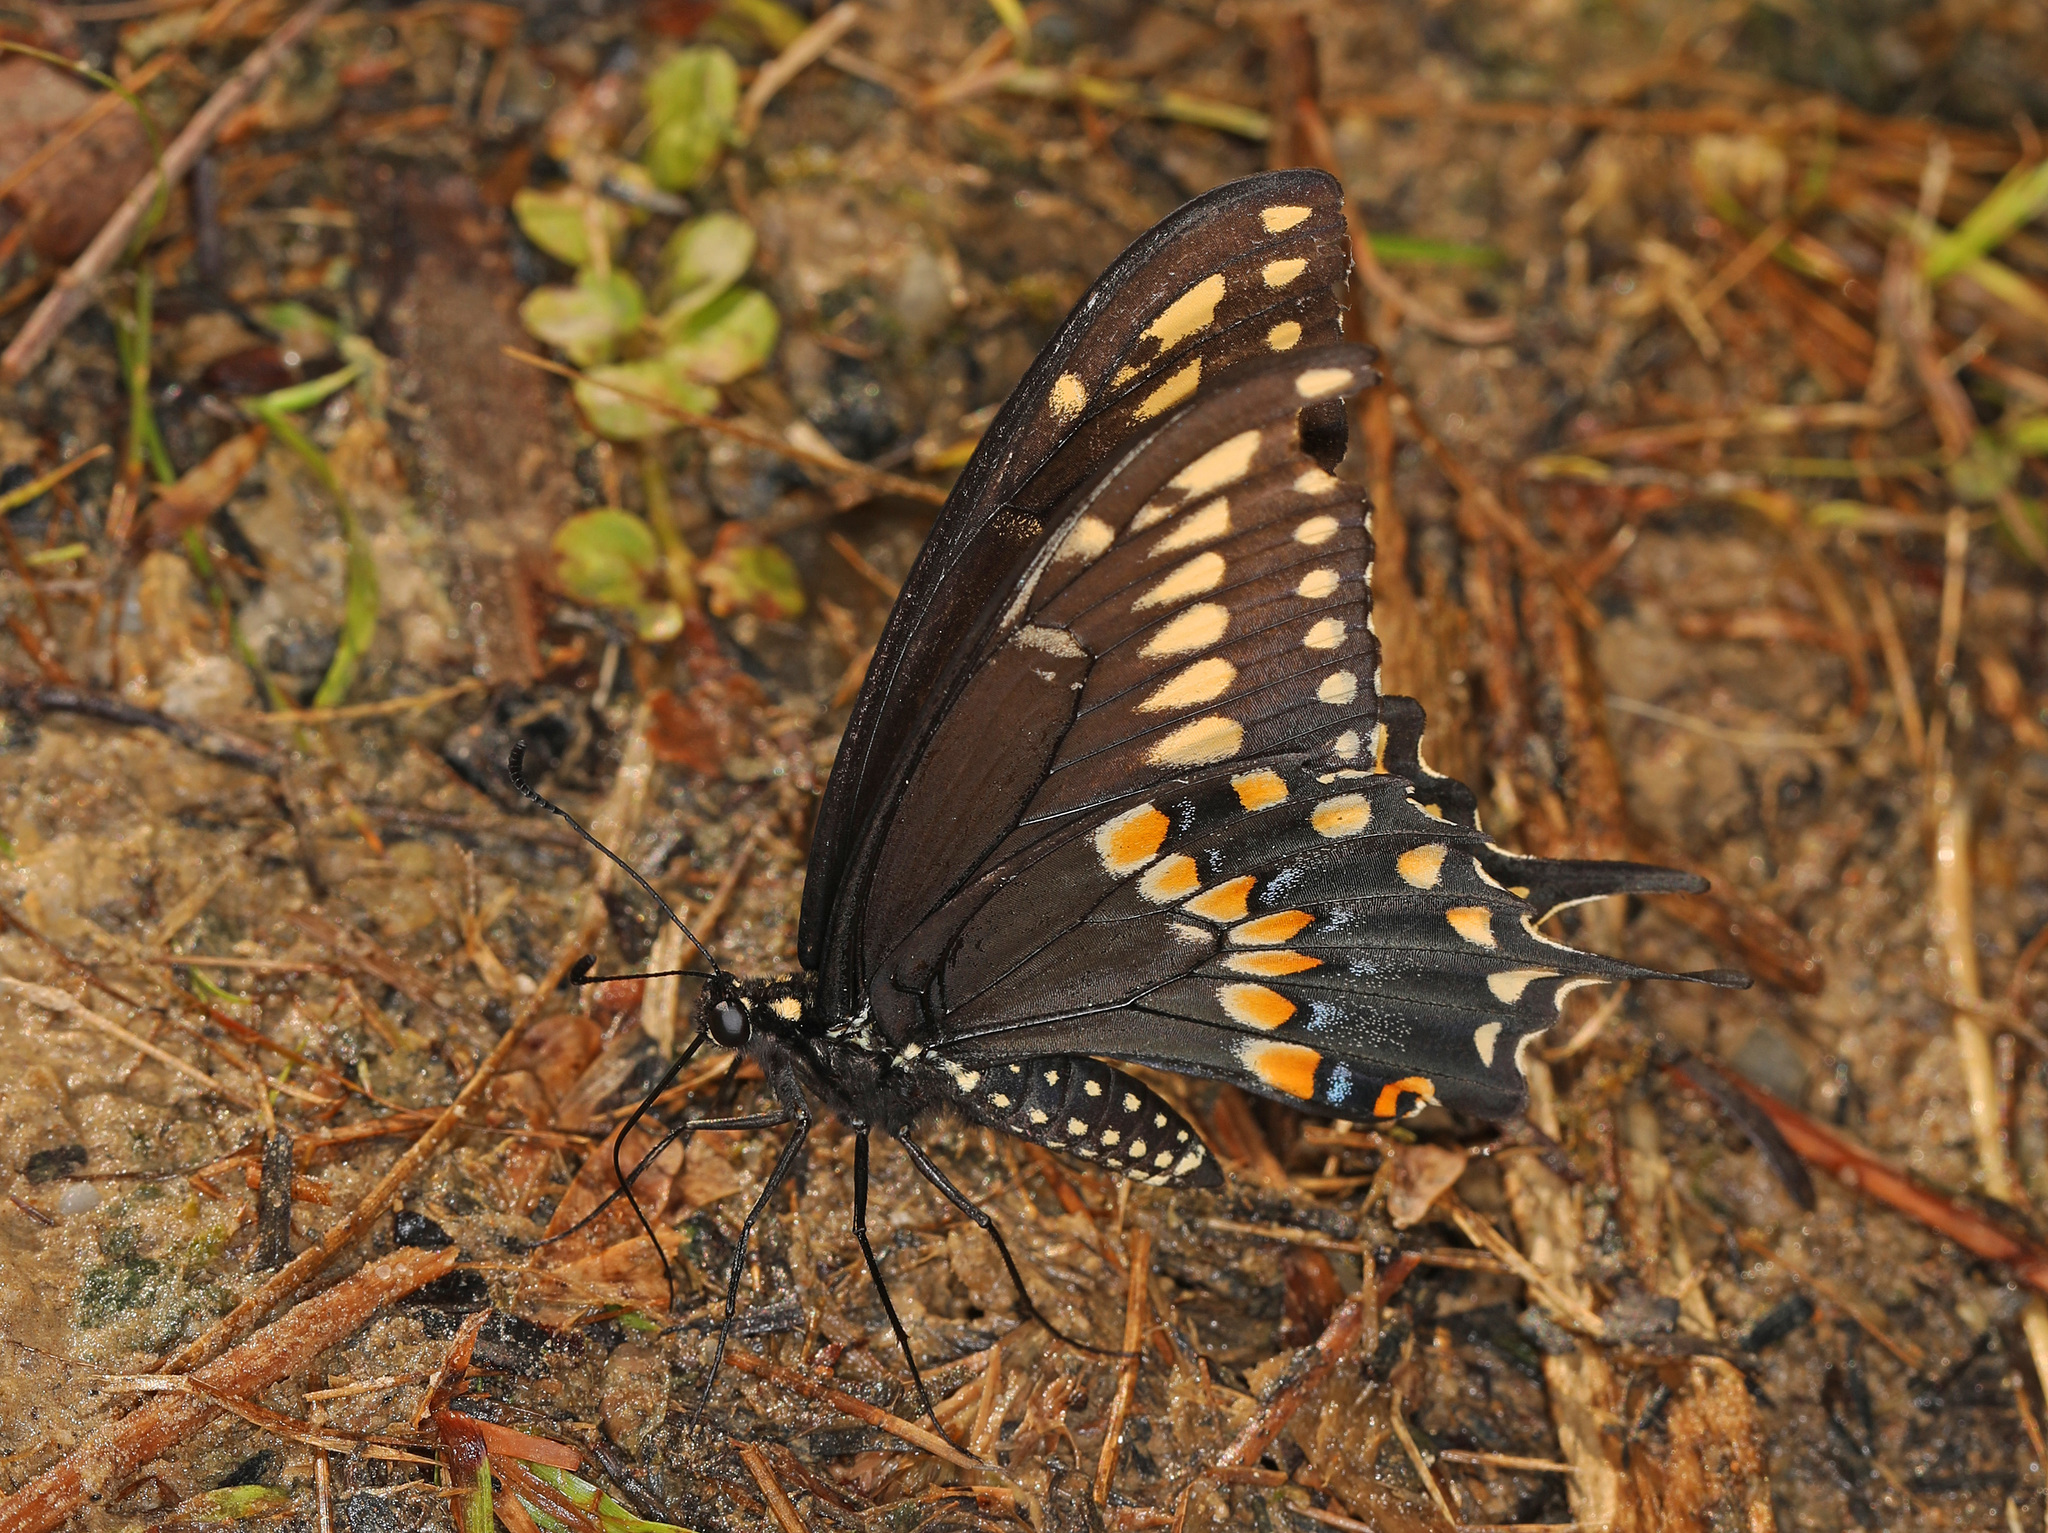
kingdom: Animalia
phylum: Arthropoda
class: Insecta
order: Lepidoptera
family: Papilionidae
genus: Papilio
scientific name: Papilio polyxenes
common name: Black swallowtail
